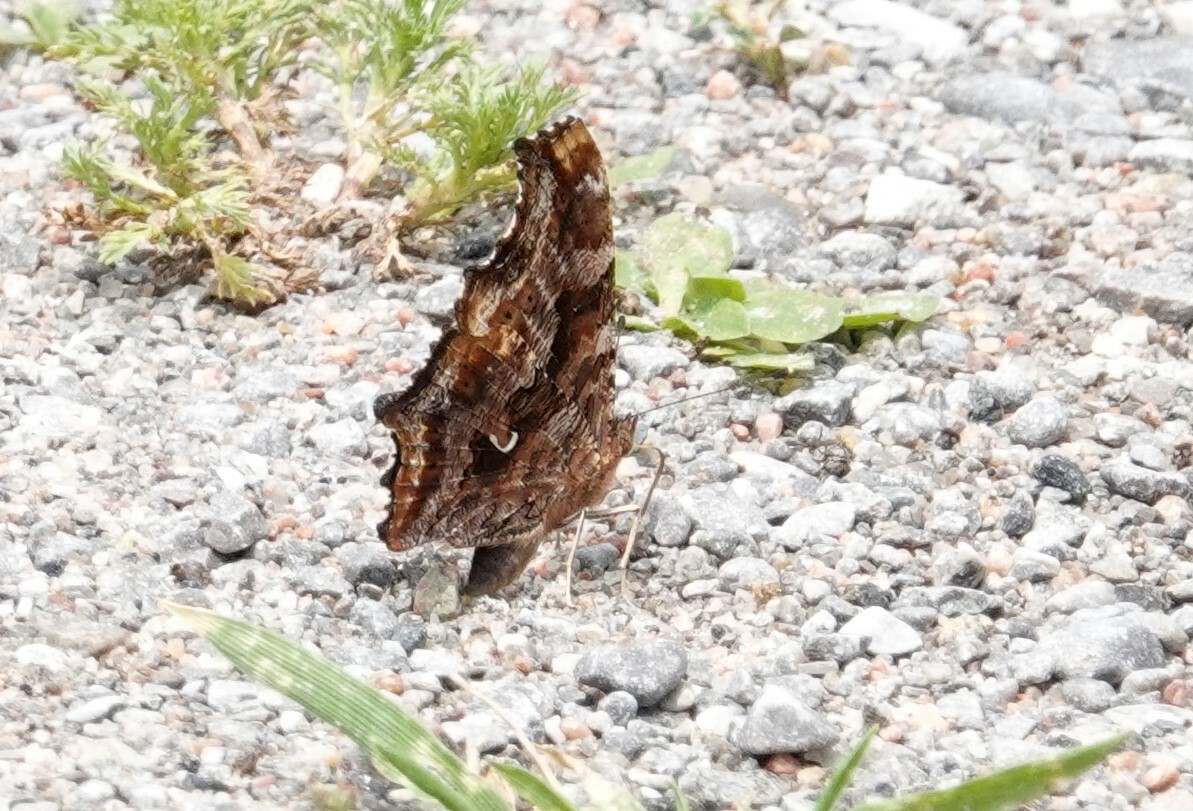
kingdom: Animalia
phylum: Arthropoda
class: Insecta
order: Lepidoptera
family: Nymphalidae
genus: Polygonia
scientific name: Polygonia comma
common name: Eastern comma
